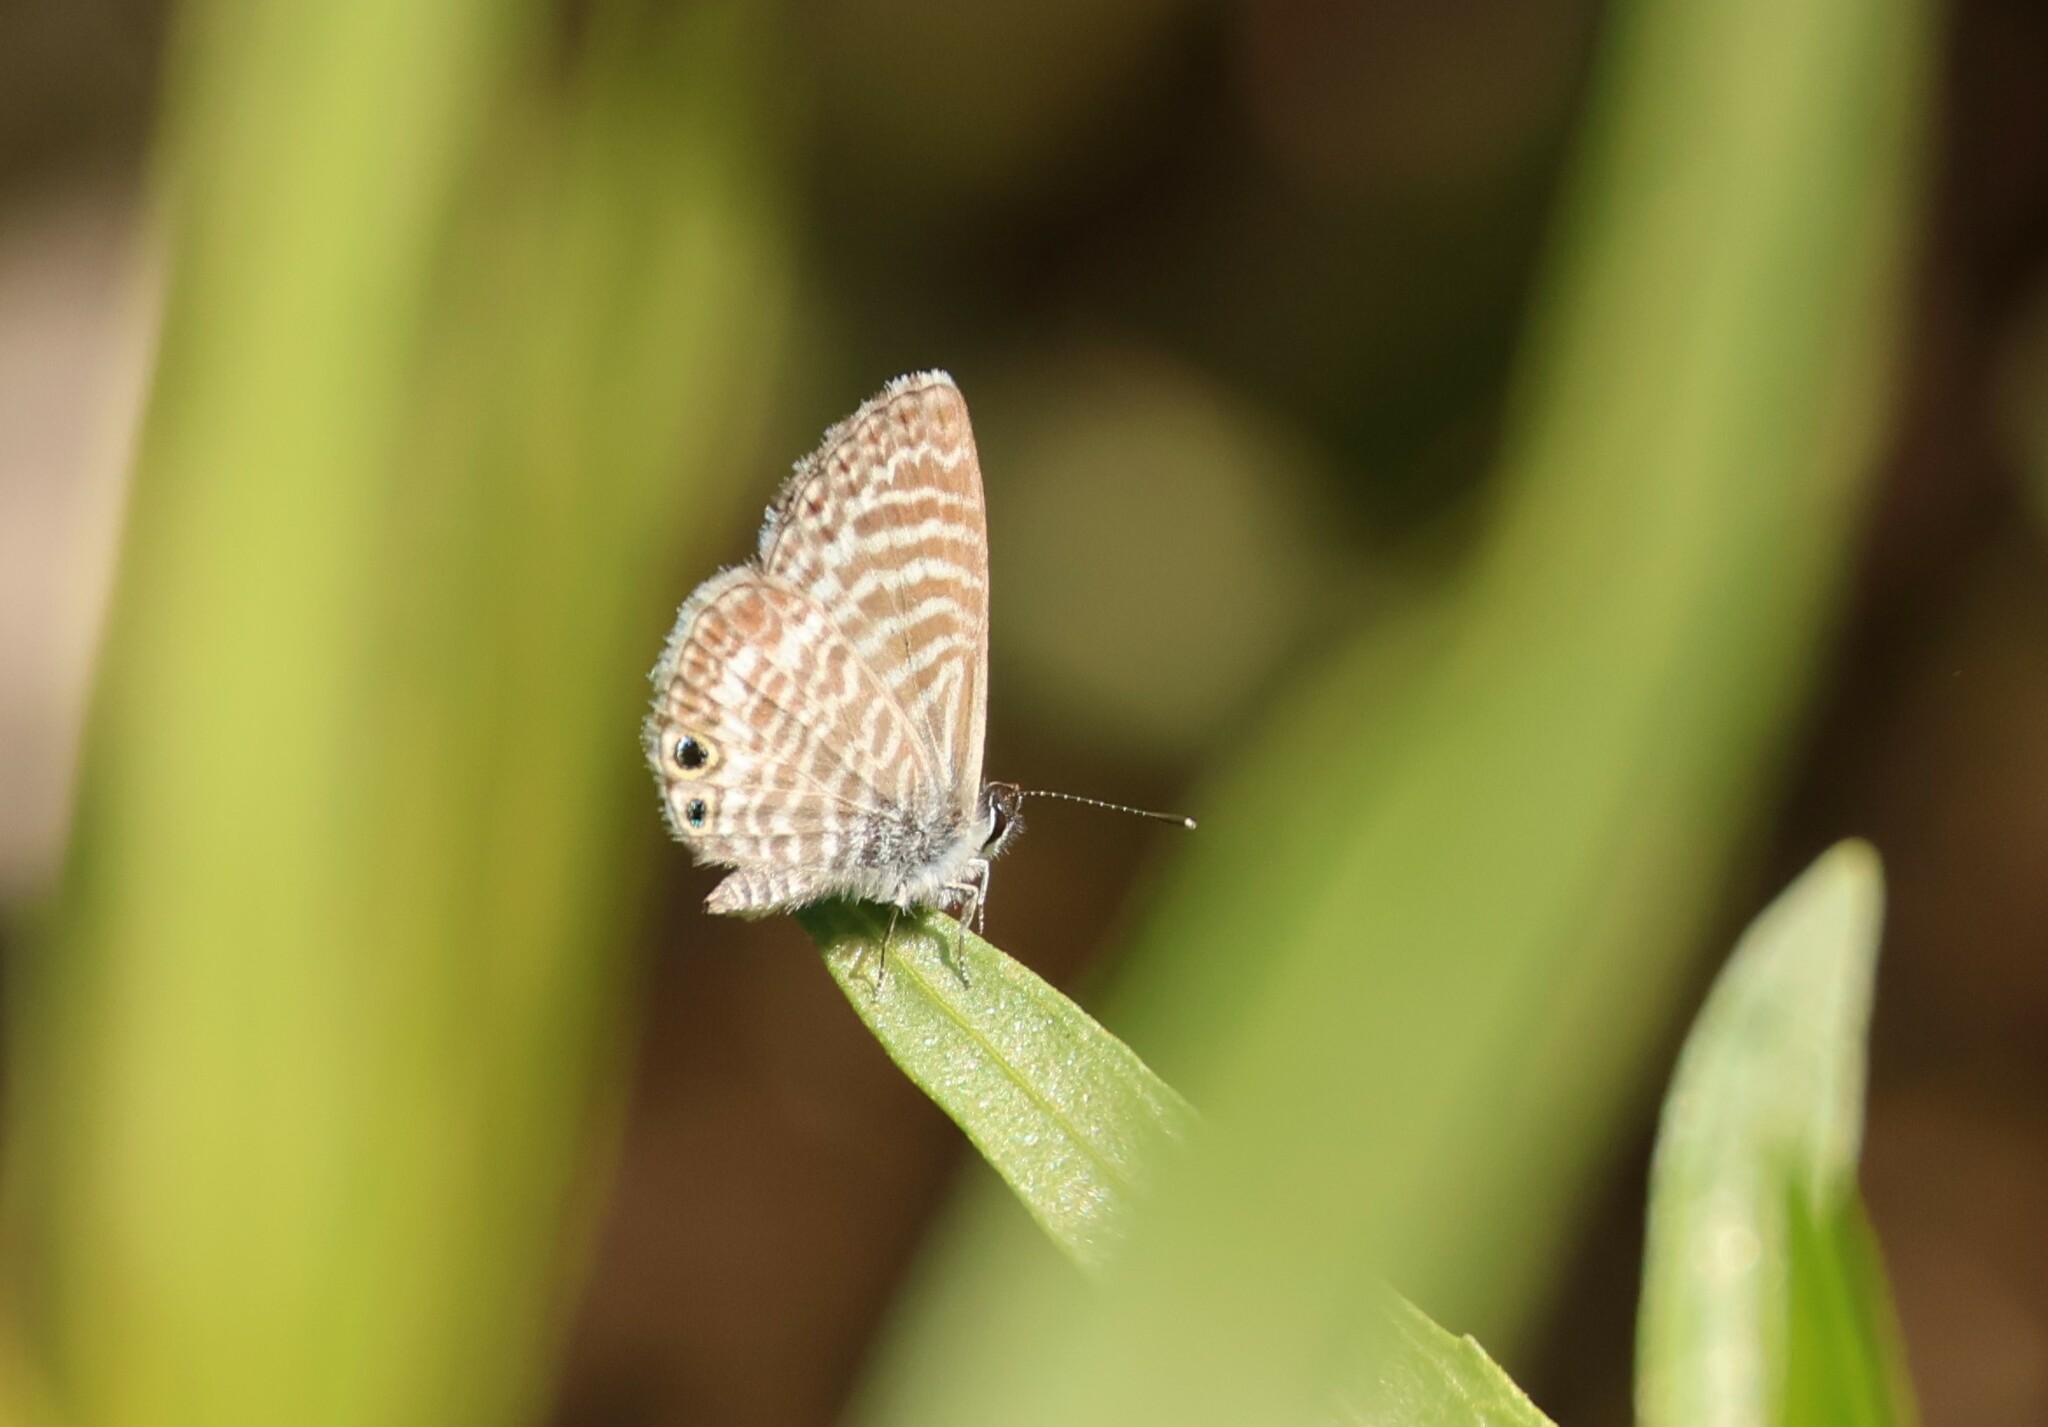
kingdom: Animalia
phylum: Arthropoda
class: Insecta
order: Lepidoptera
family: Lycaenidae
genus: Leptotes
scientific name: Leptotes marina
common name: Marine blue
